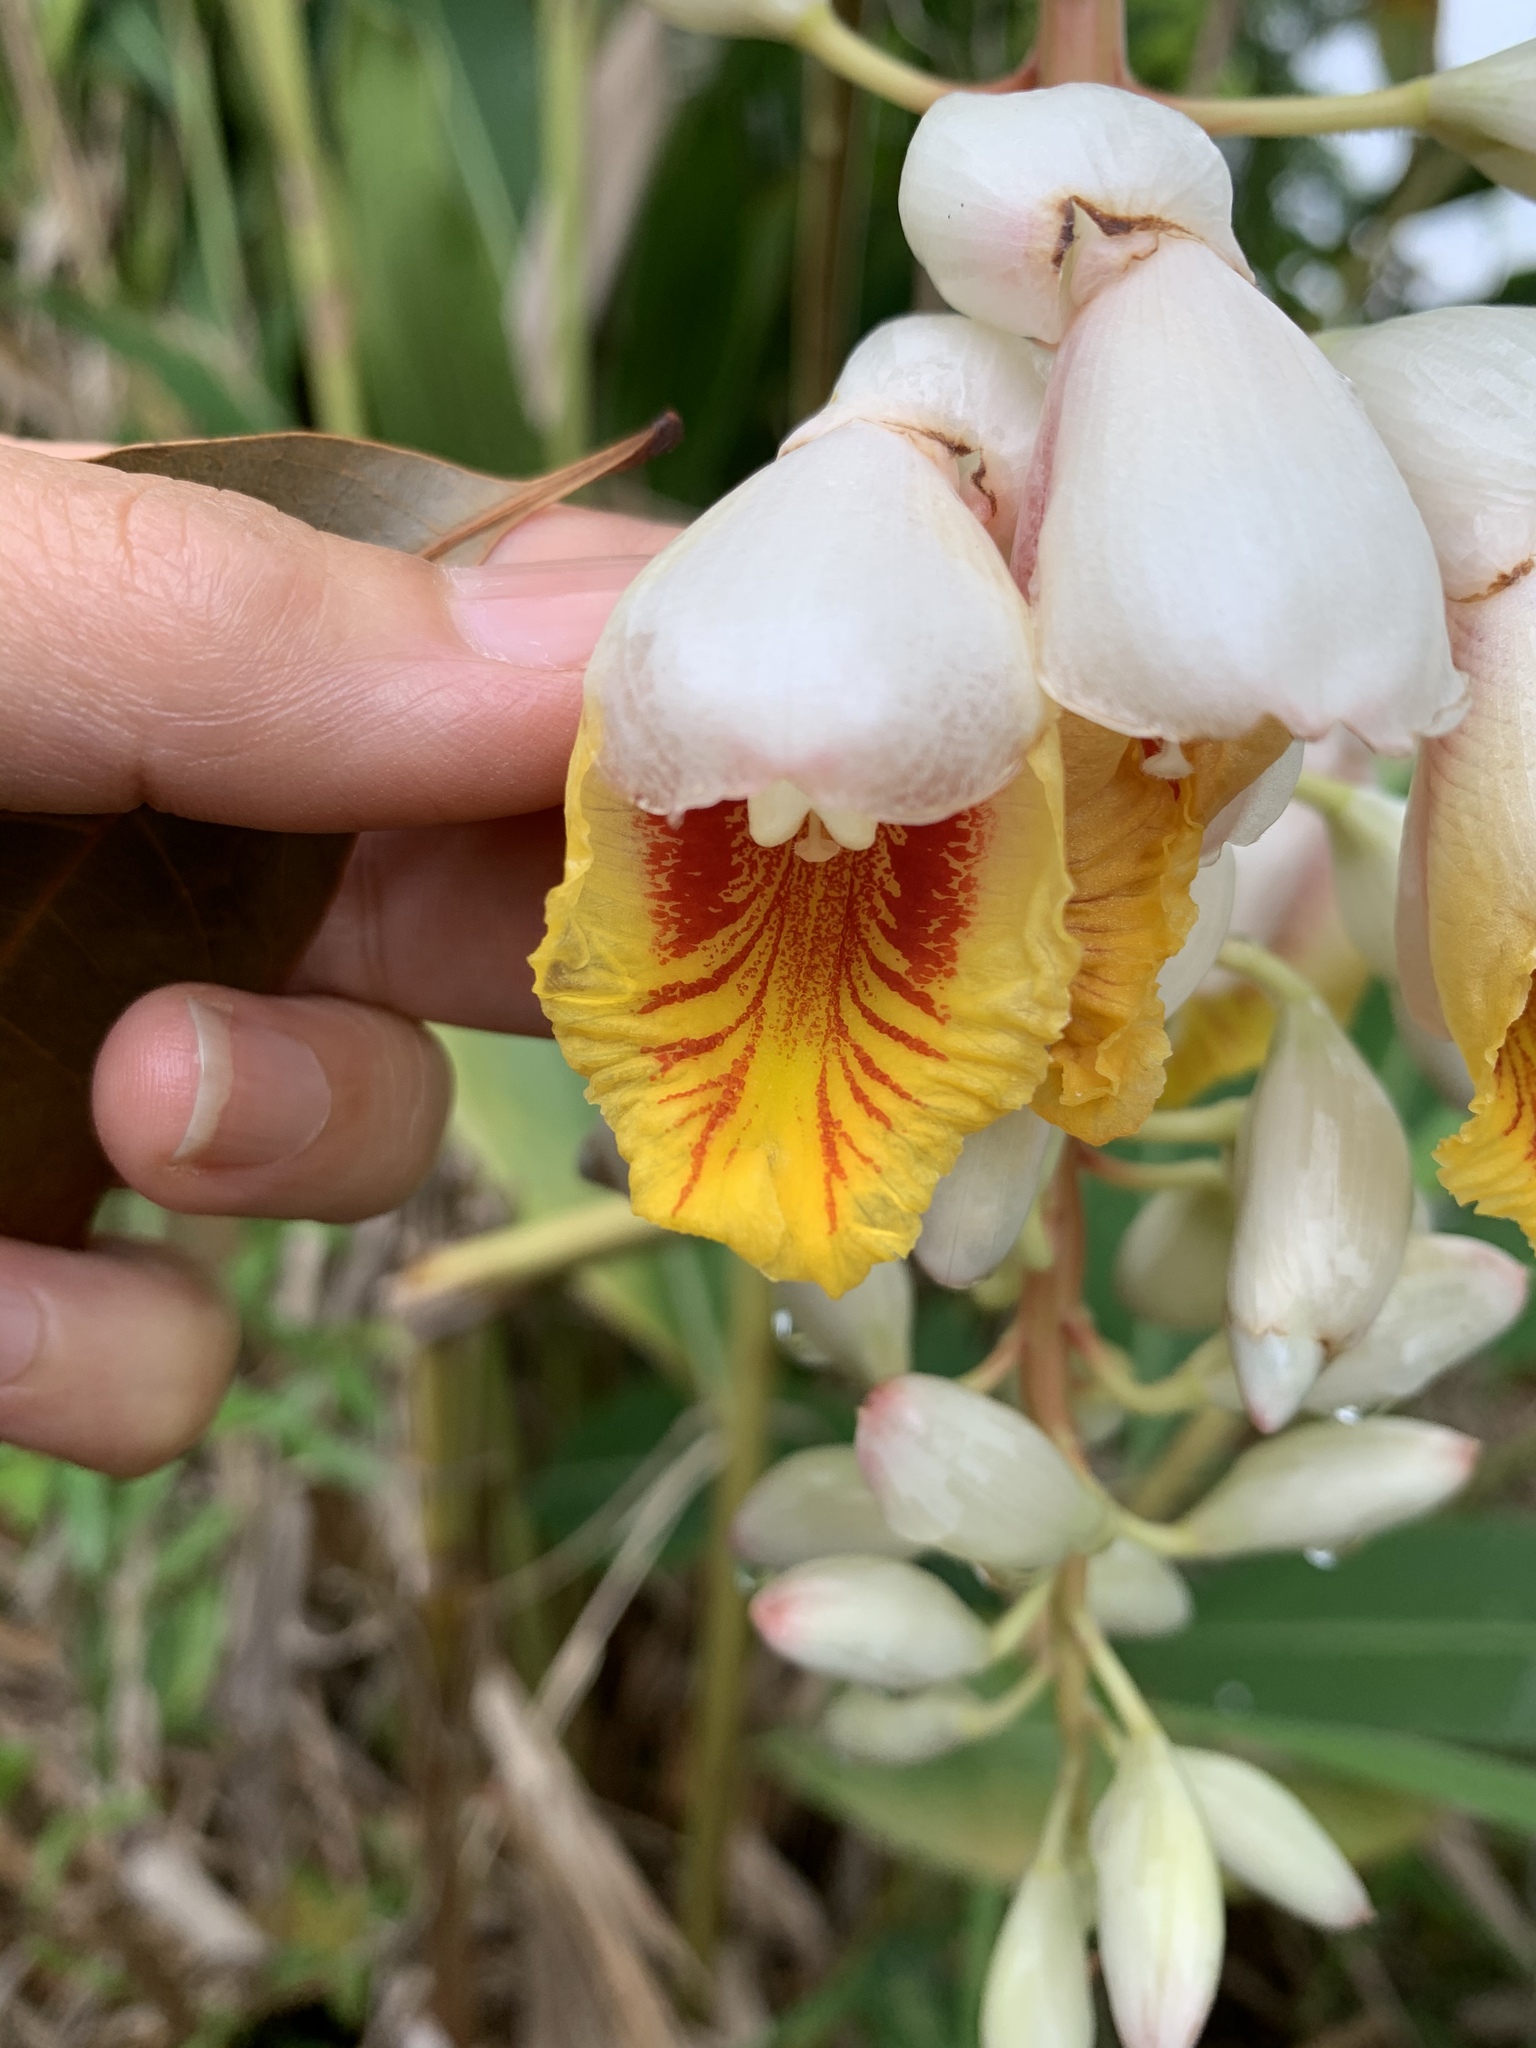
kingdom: Plantae
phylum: Tracheophyta
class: Liliopsida
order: Zingiberales
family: Zingiberaceae
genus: Alpinia
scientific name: Alpinia zerumbet
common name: Shellplant
